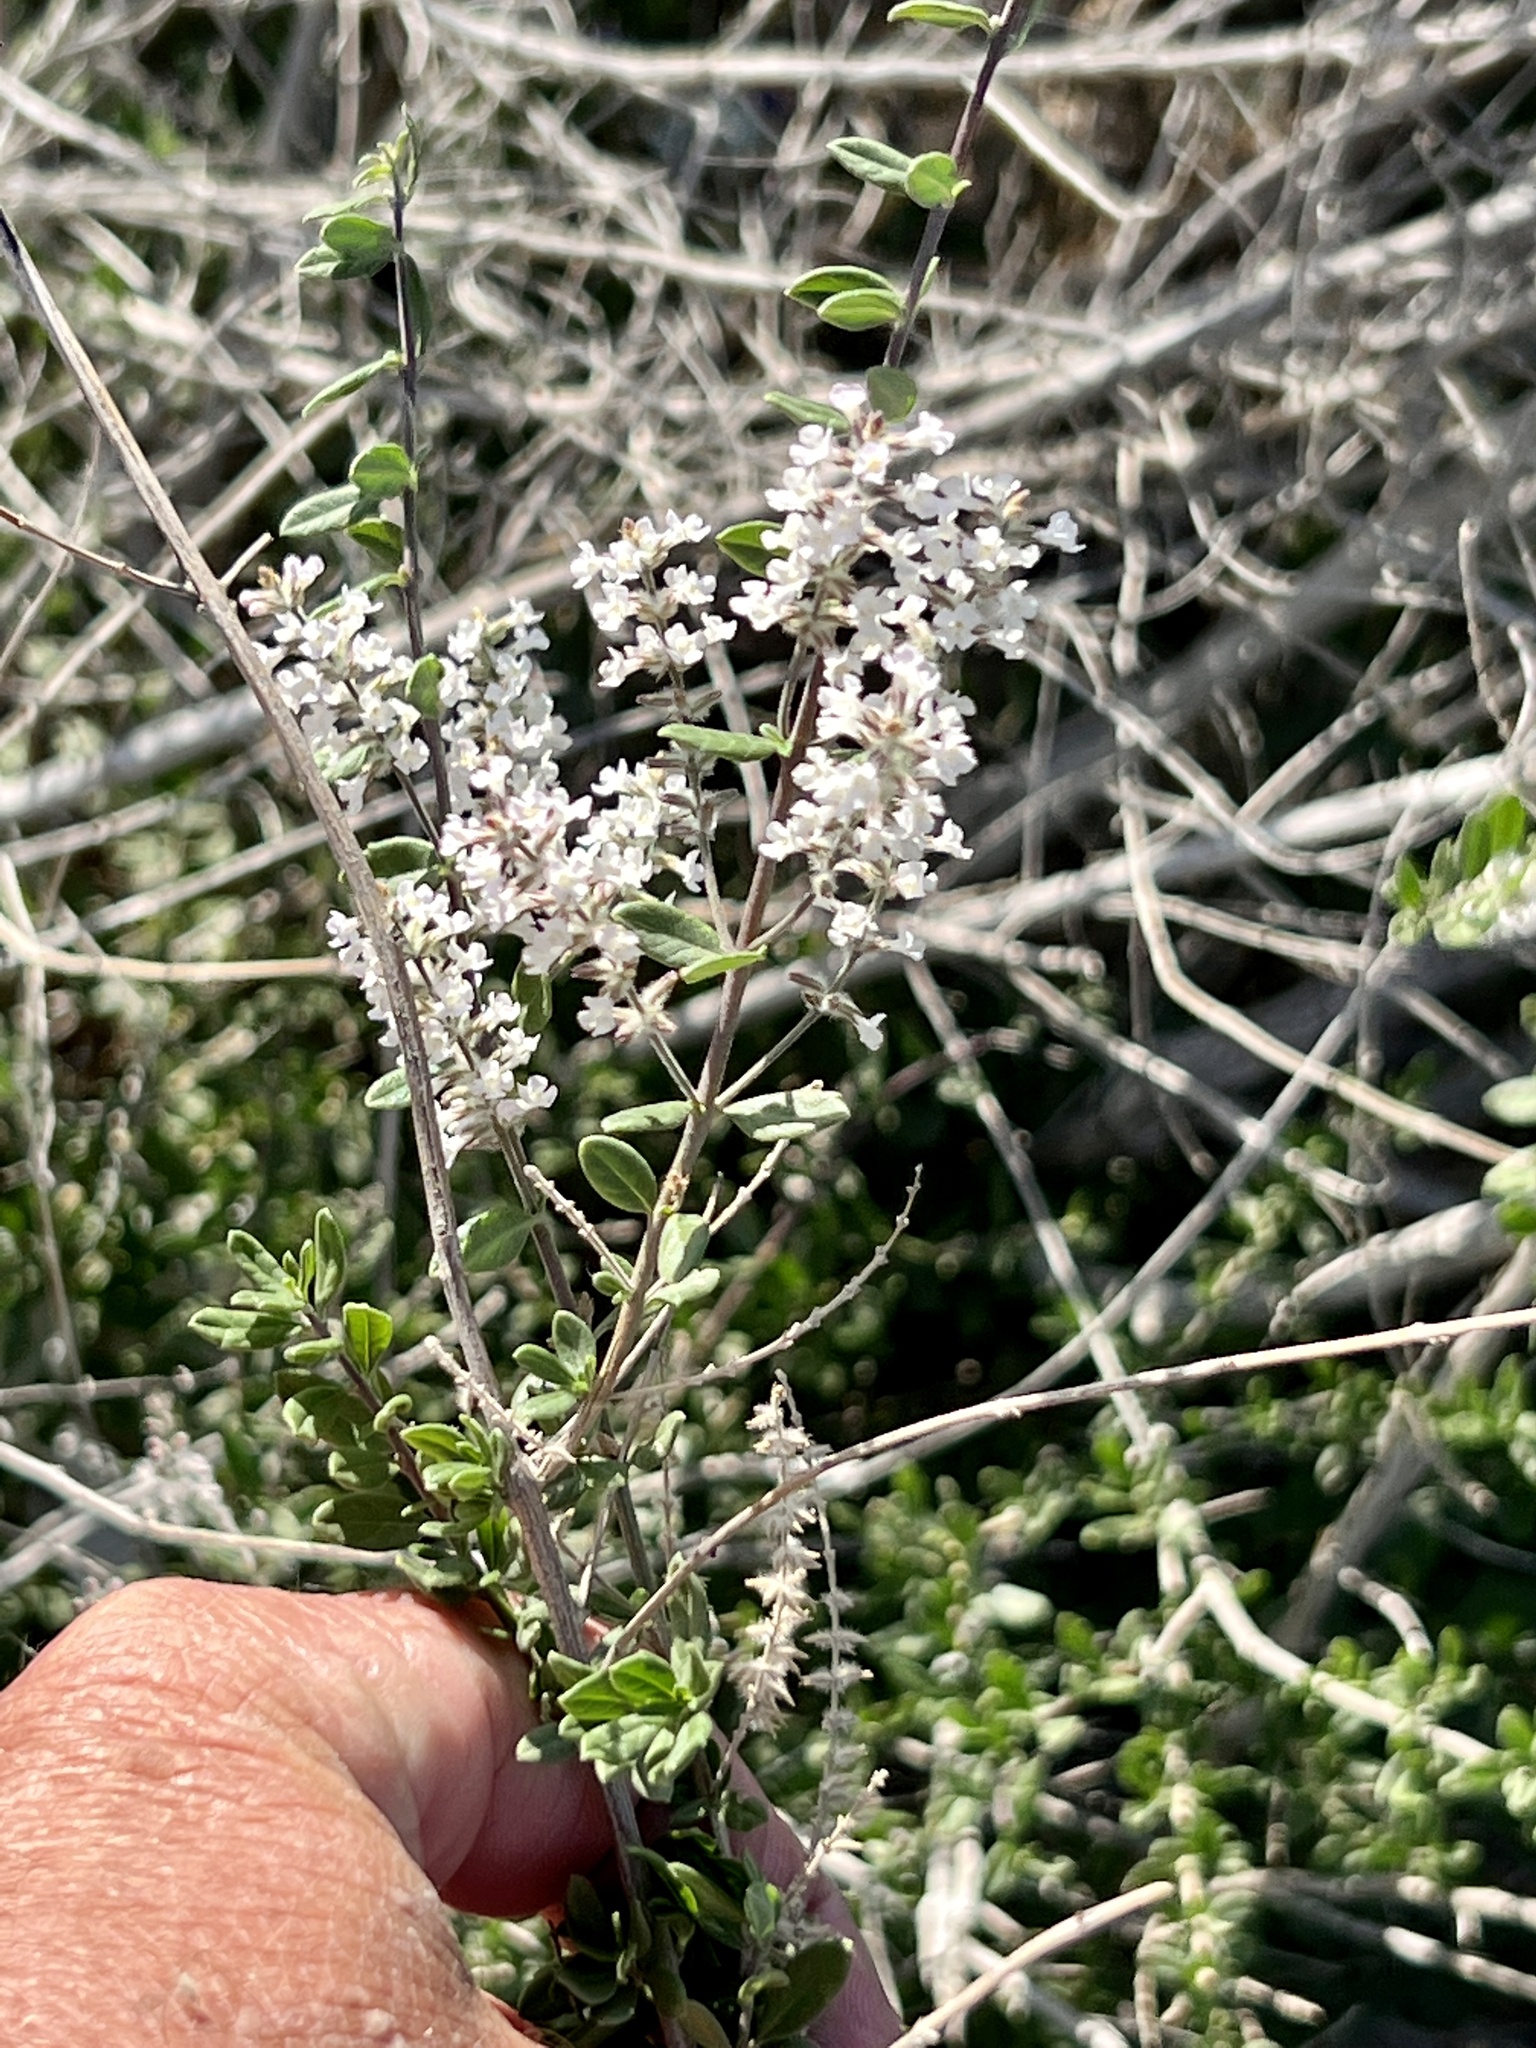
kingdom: Plantae
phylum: Tracheophyta
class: Magnoliopsida
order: Lamiales
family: Verbenaceae
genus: Aloysia
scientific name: Aloysia gratissima
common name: Common bee-brush
